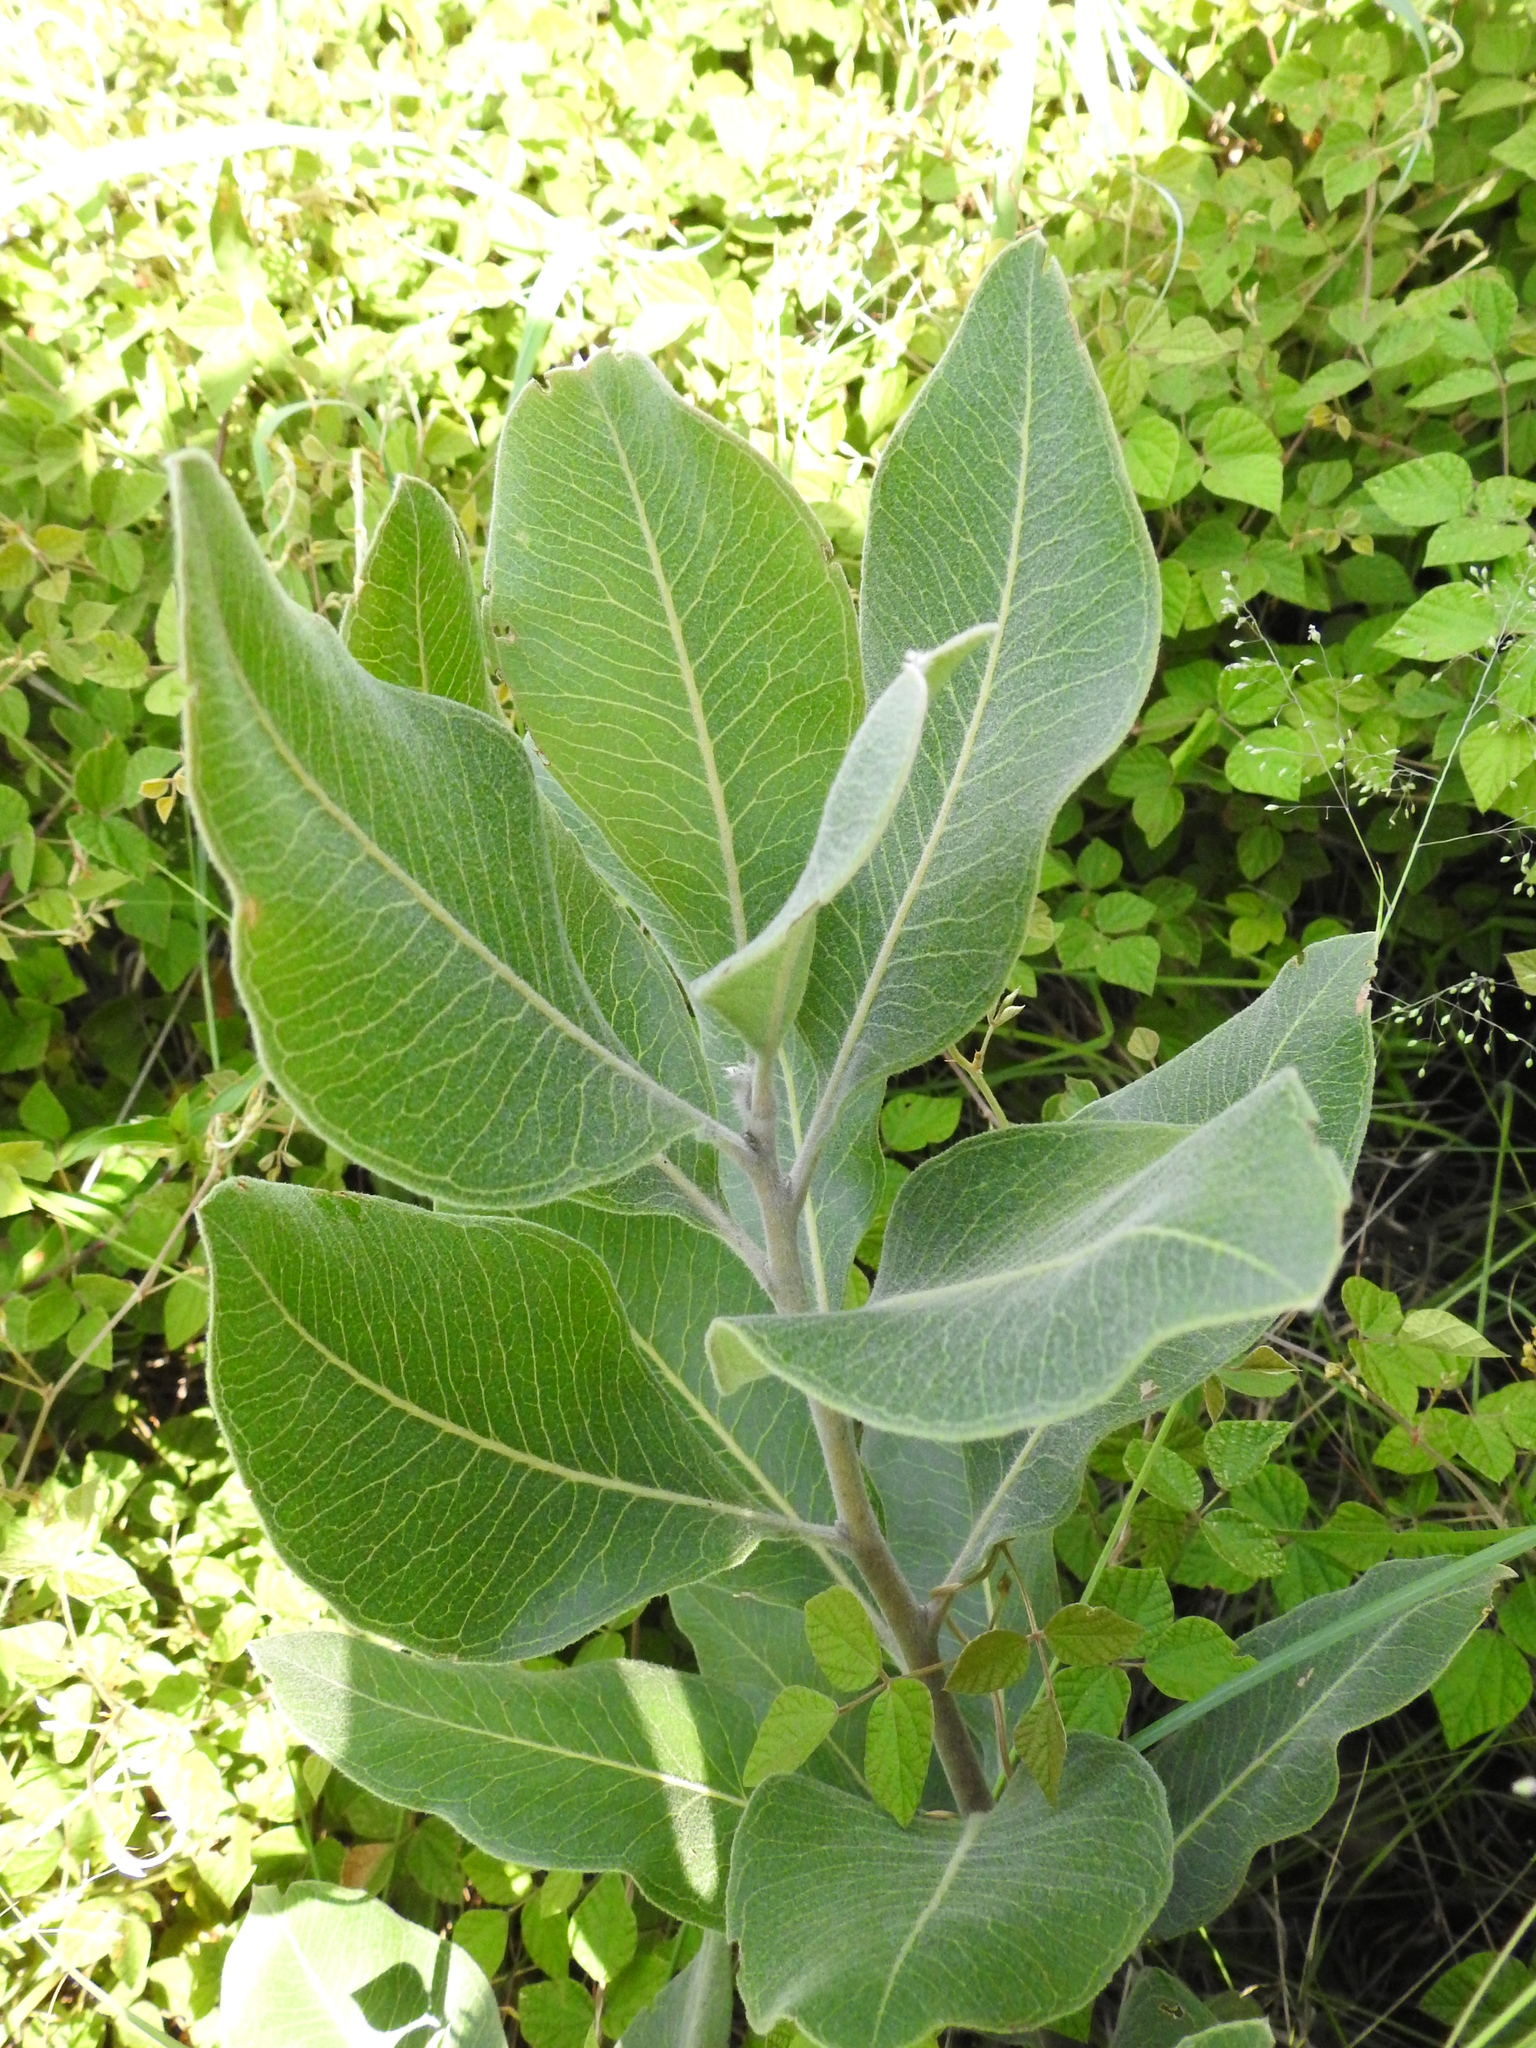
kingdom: Plantae
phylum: Tracheophyta
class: Magnoliopsida
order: Proteales
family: Proteaceae
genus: Faurea
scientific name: Faurea rochetiana
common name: Broad-leaved beech
